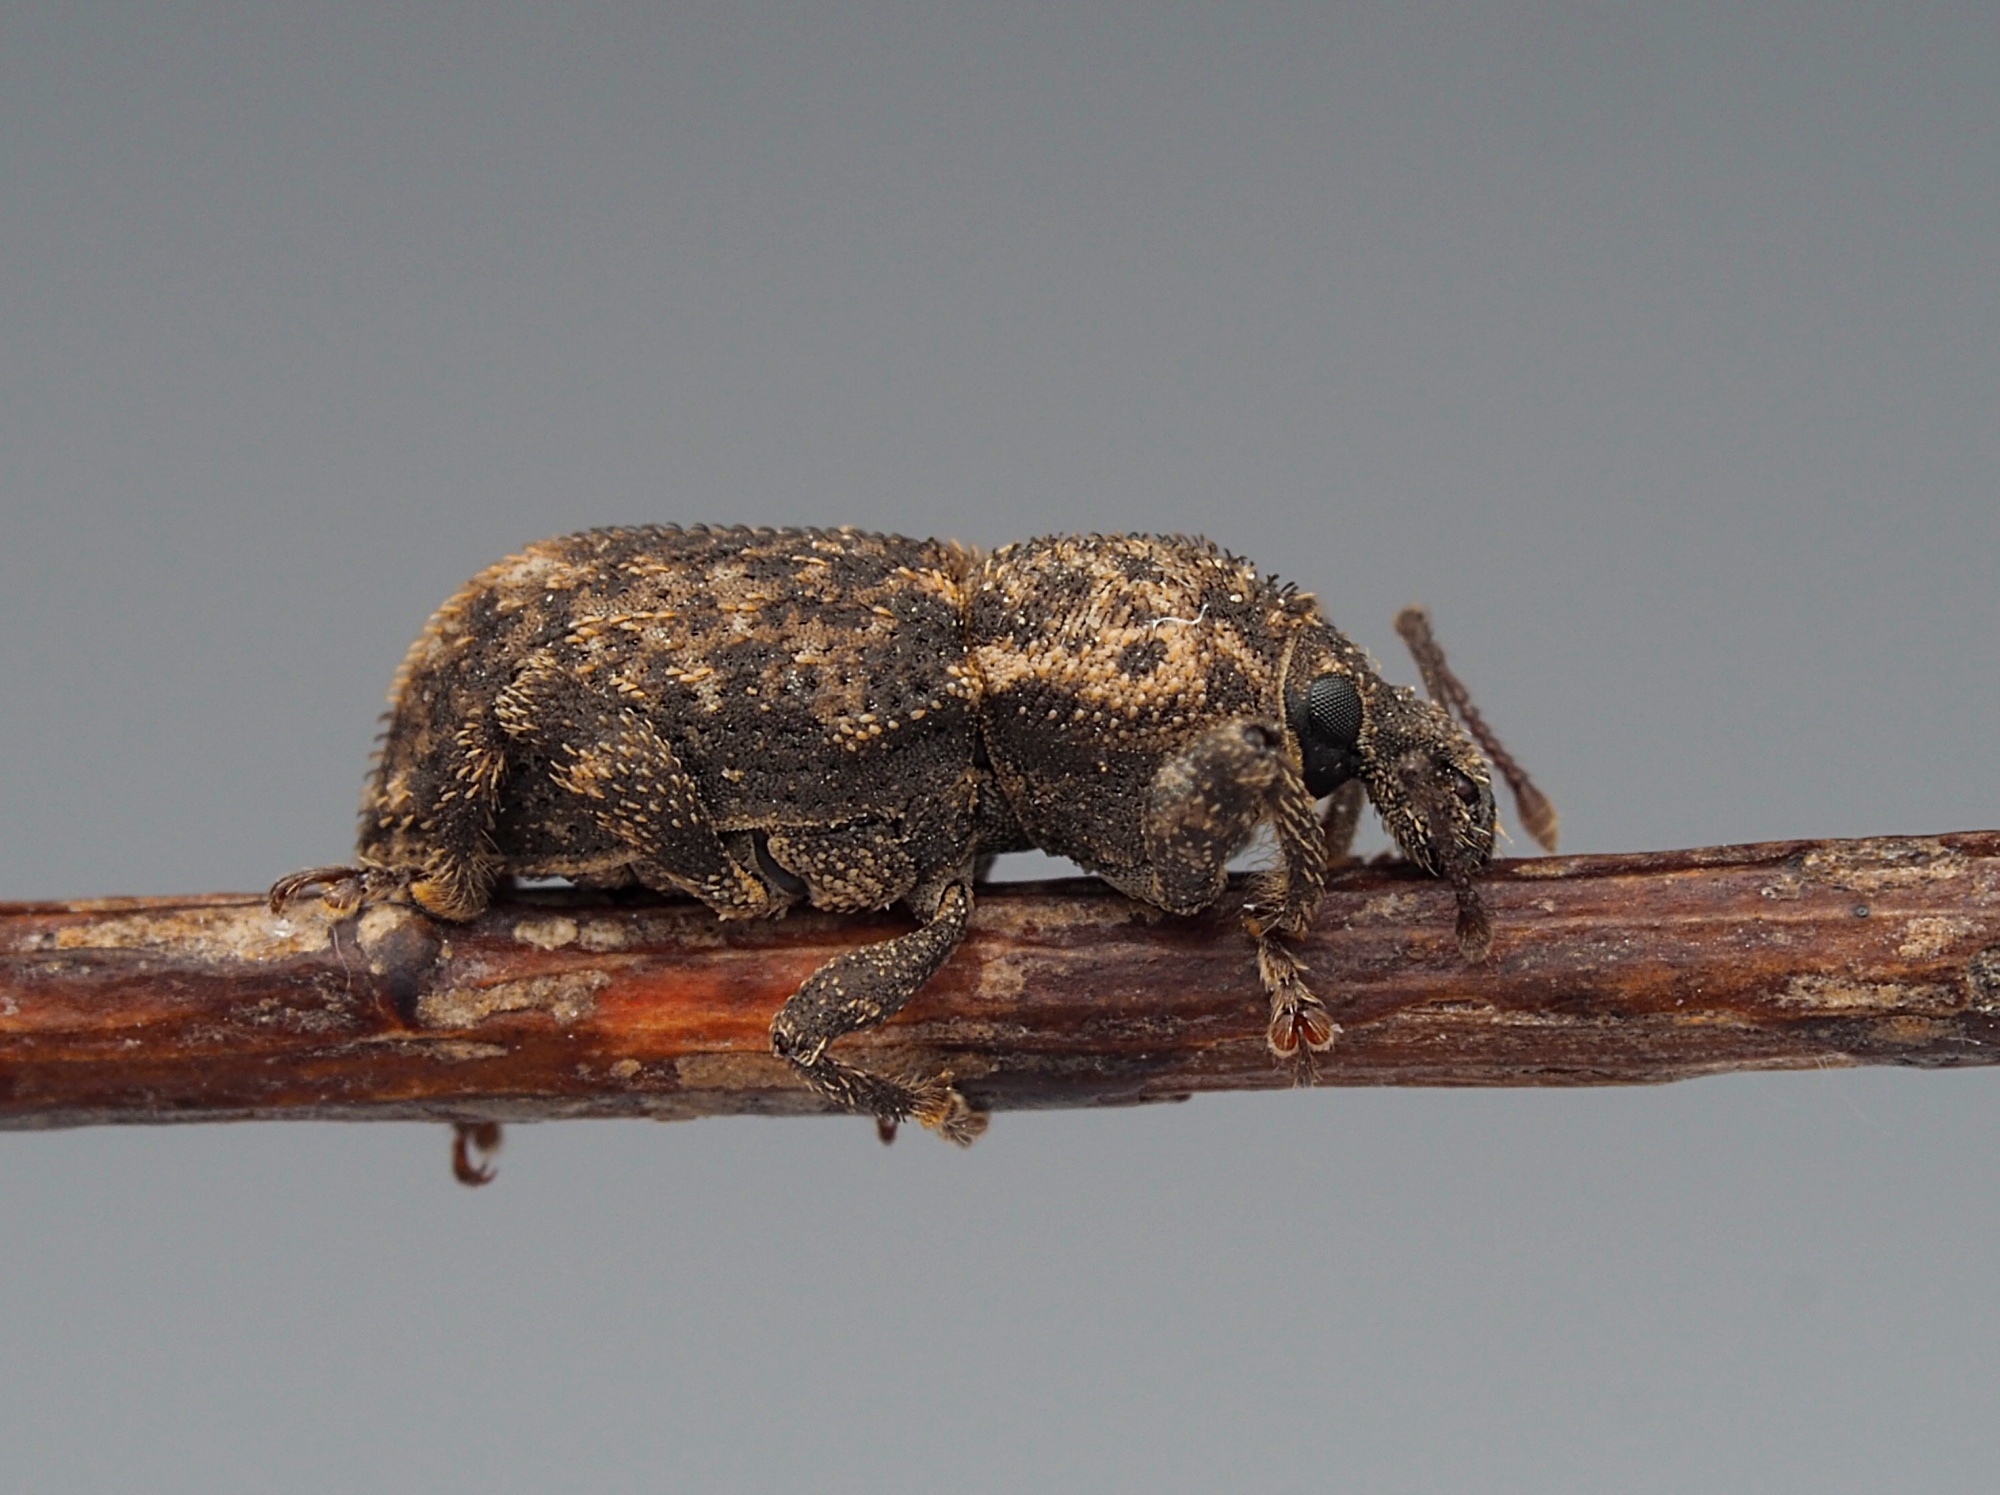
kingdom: Animalia
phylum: Arthropoda
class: Insecta
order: Coleoptera
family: Curculionidae
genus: Mandalotus
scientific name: Mandalotus miricollis
